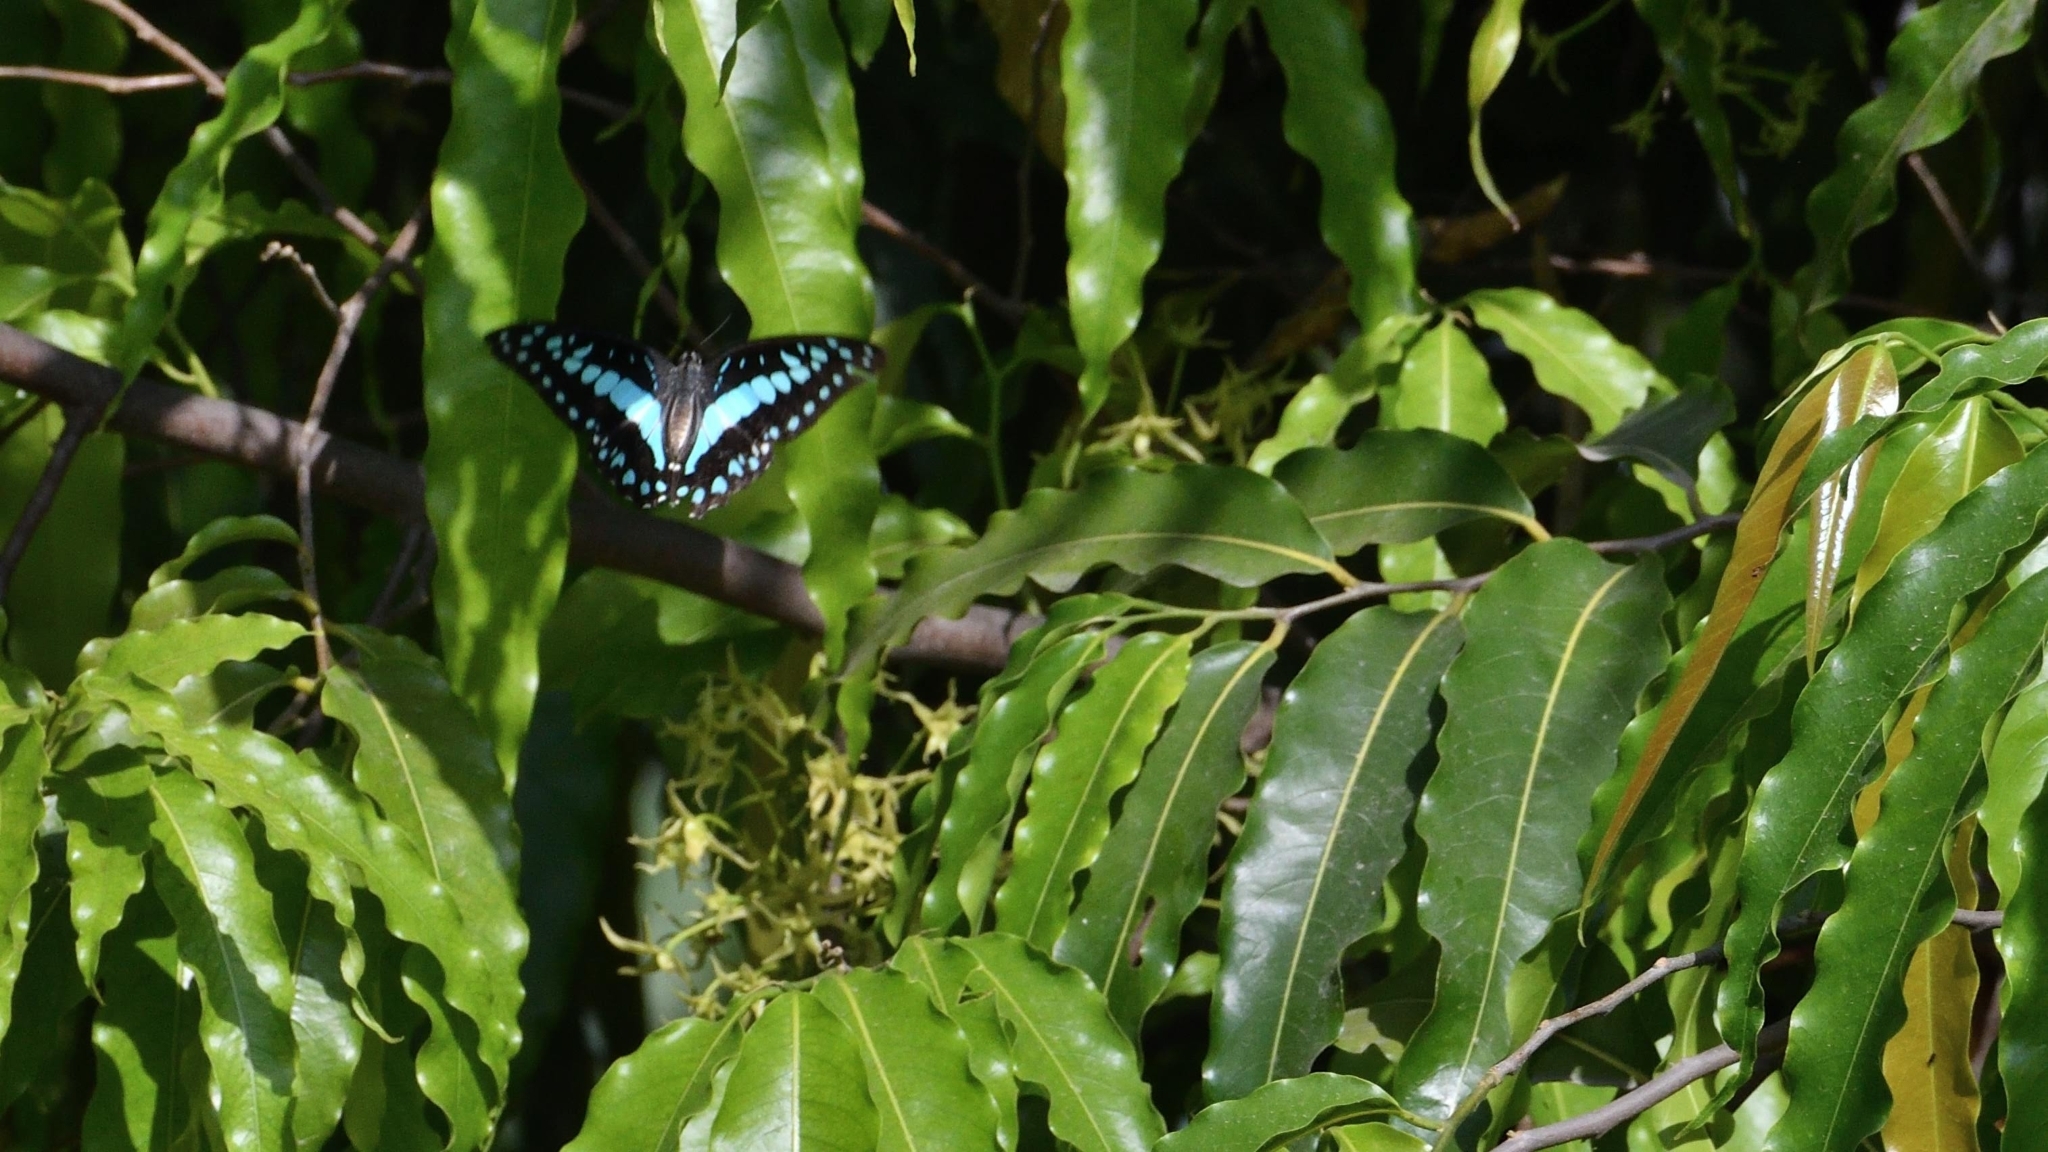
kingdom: Animalia
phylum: Arthropoda
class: Insecta
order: Lepidoptera
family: Papilionidae
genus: Graphium
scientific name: Graphium doson
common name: Common jay
